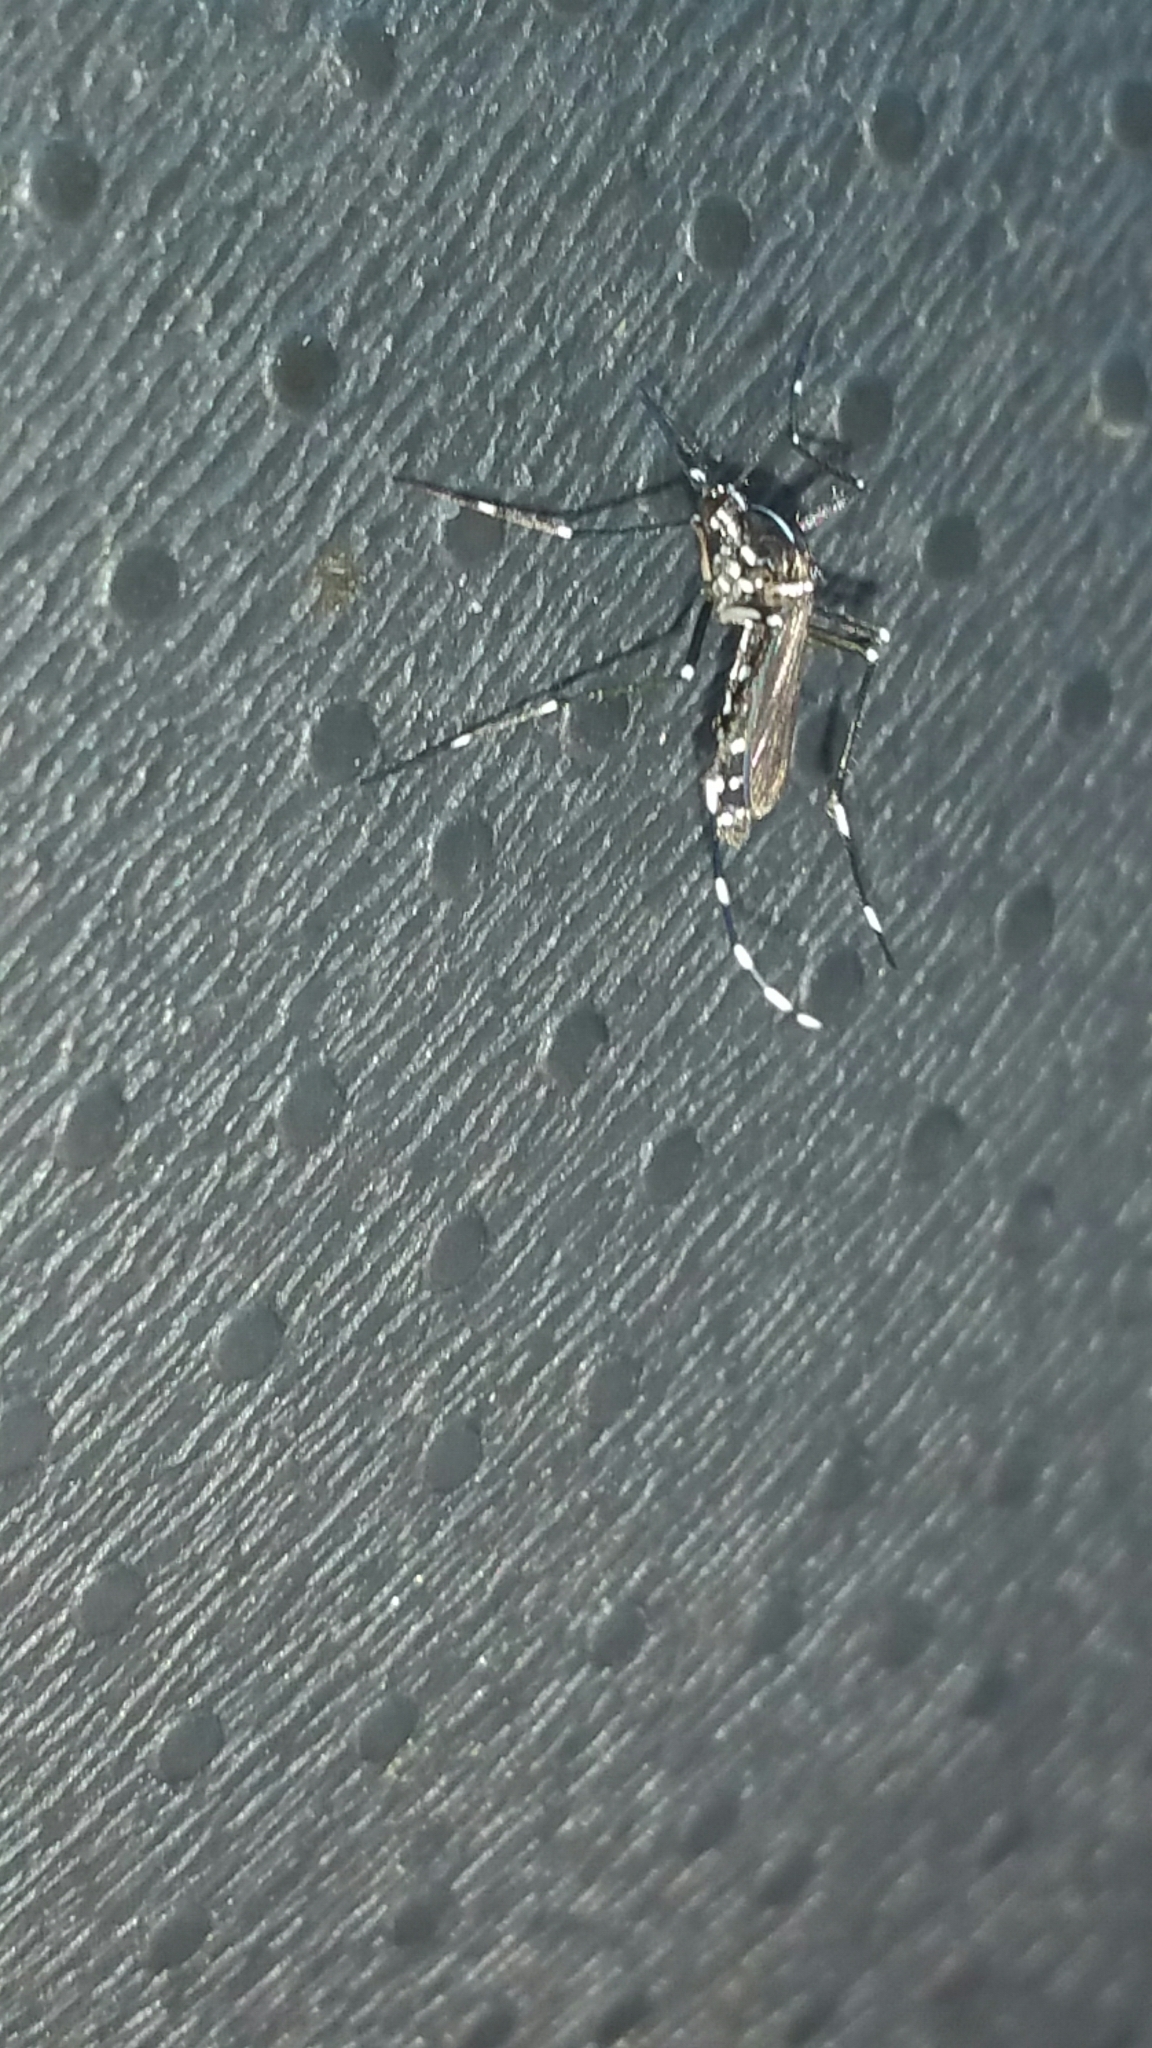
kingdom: Animalia
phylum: Arthropoda
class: Insecta
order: Diptera
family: Culicidae
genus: Aedes
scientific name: Aedes albopictus
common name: Tiger mosquito
